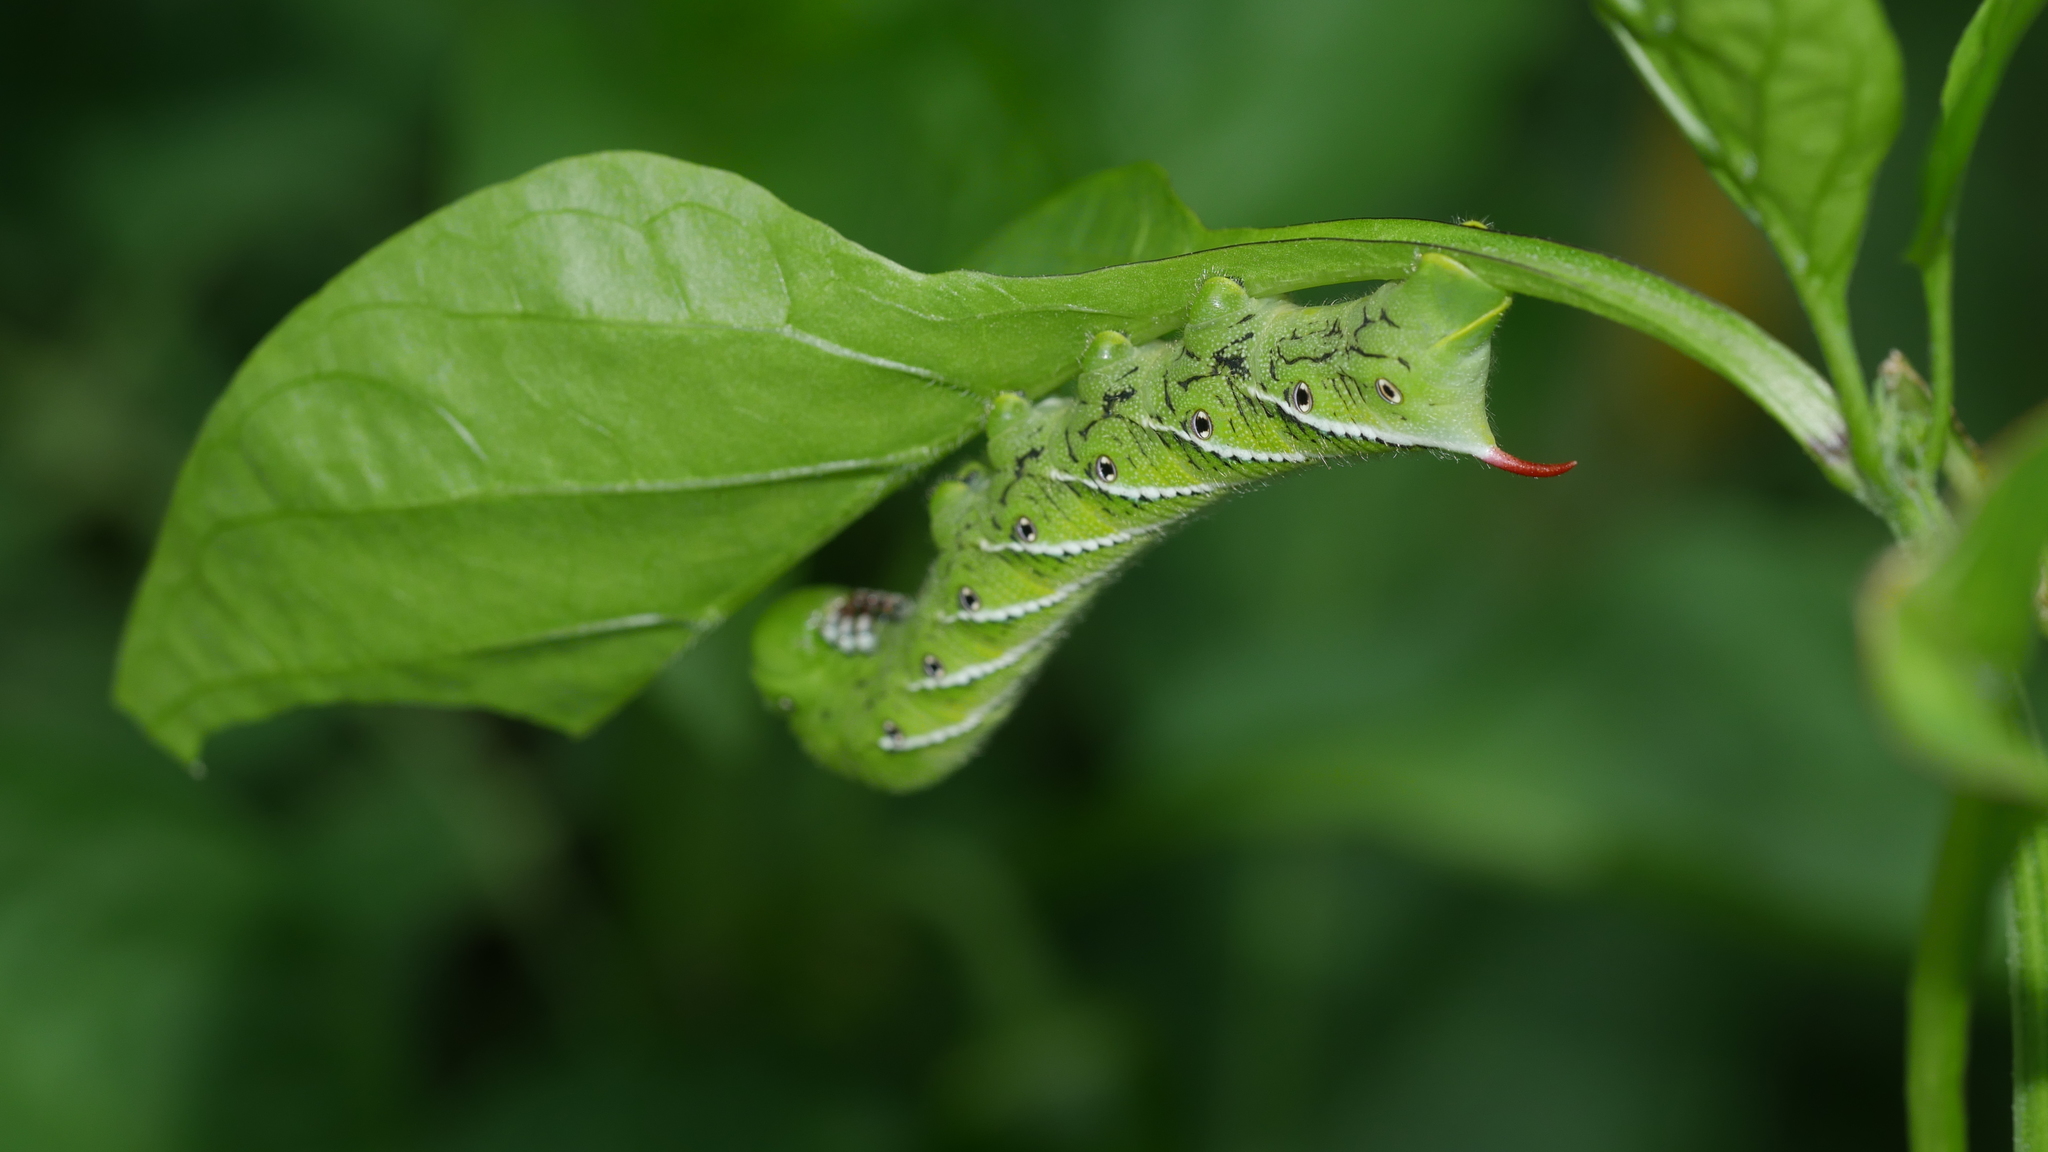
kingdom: Animalia
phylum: Arthropoda
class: Insecta
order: Lepidoptera
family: Sphingidae
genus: Manduca
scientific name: Manduca sexta
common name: Carolina sphinx
